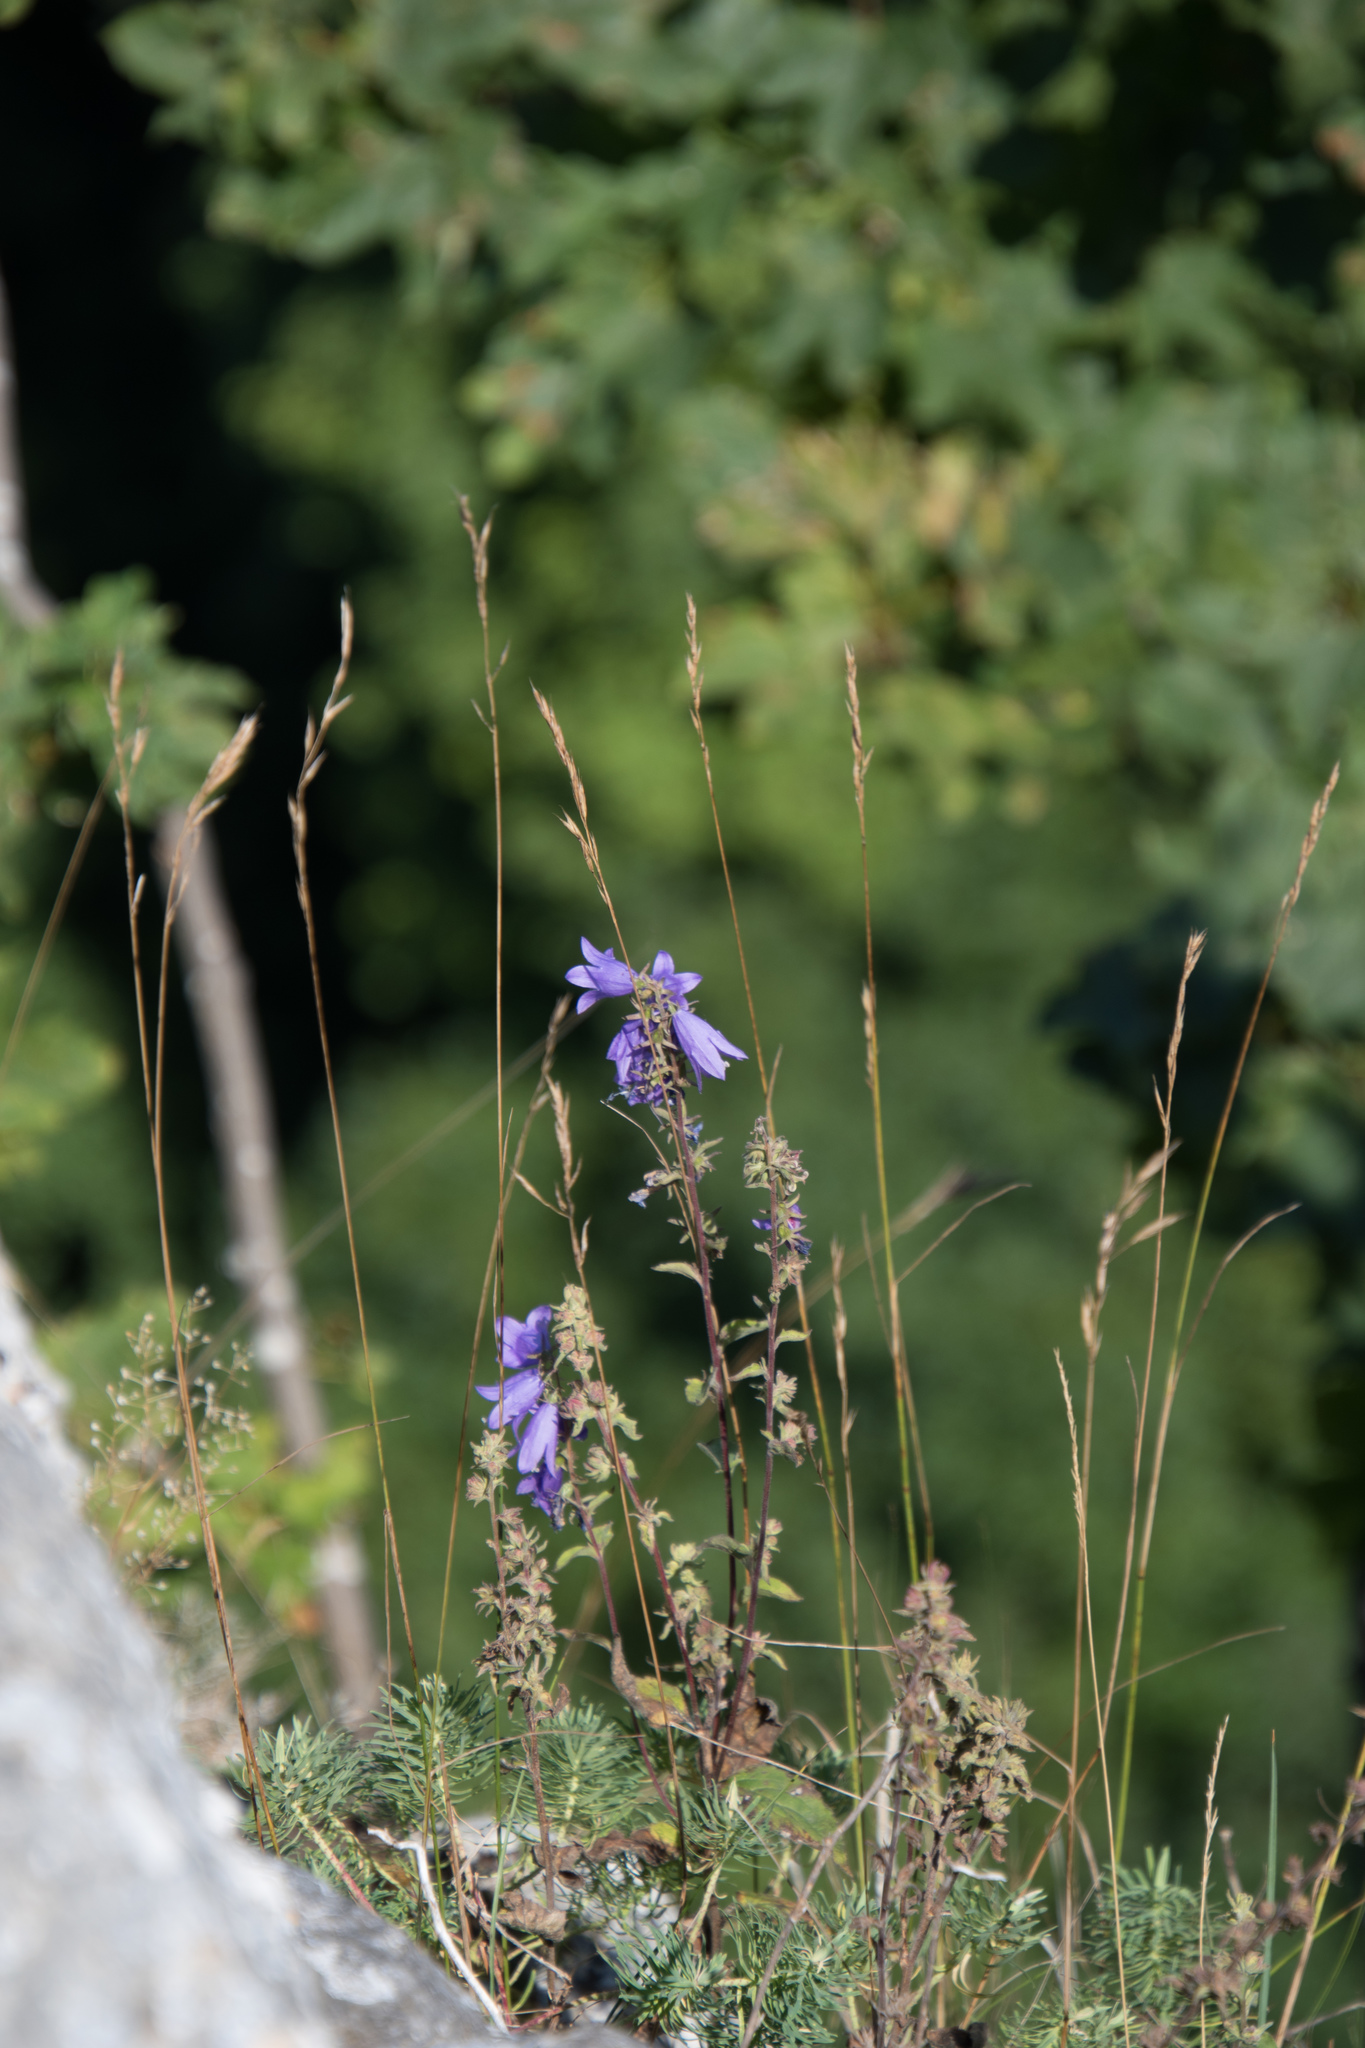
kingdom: Plantae
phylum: Tracheophyta
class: Magnoliopsida
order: Asterales
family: Campanulaceae
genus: Campanula
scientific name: Campanula glomerata
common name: Clustered bellflower
